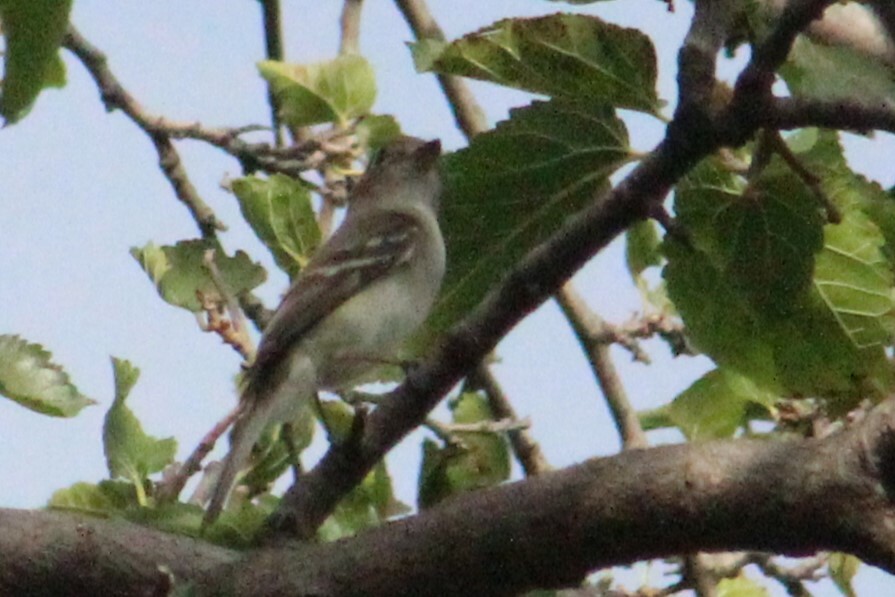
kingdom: Animalia
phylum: Chordata
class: Aves
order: Passeriformes
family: Tyrannidae
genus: Empidonax
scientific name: Empidonax minimus
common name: Least flycatcher
